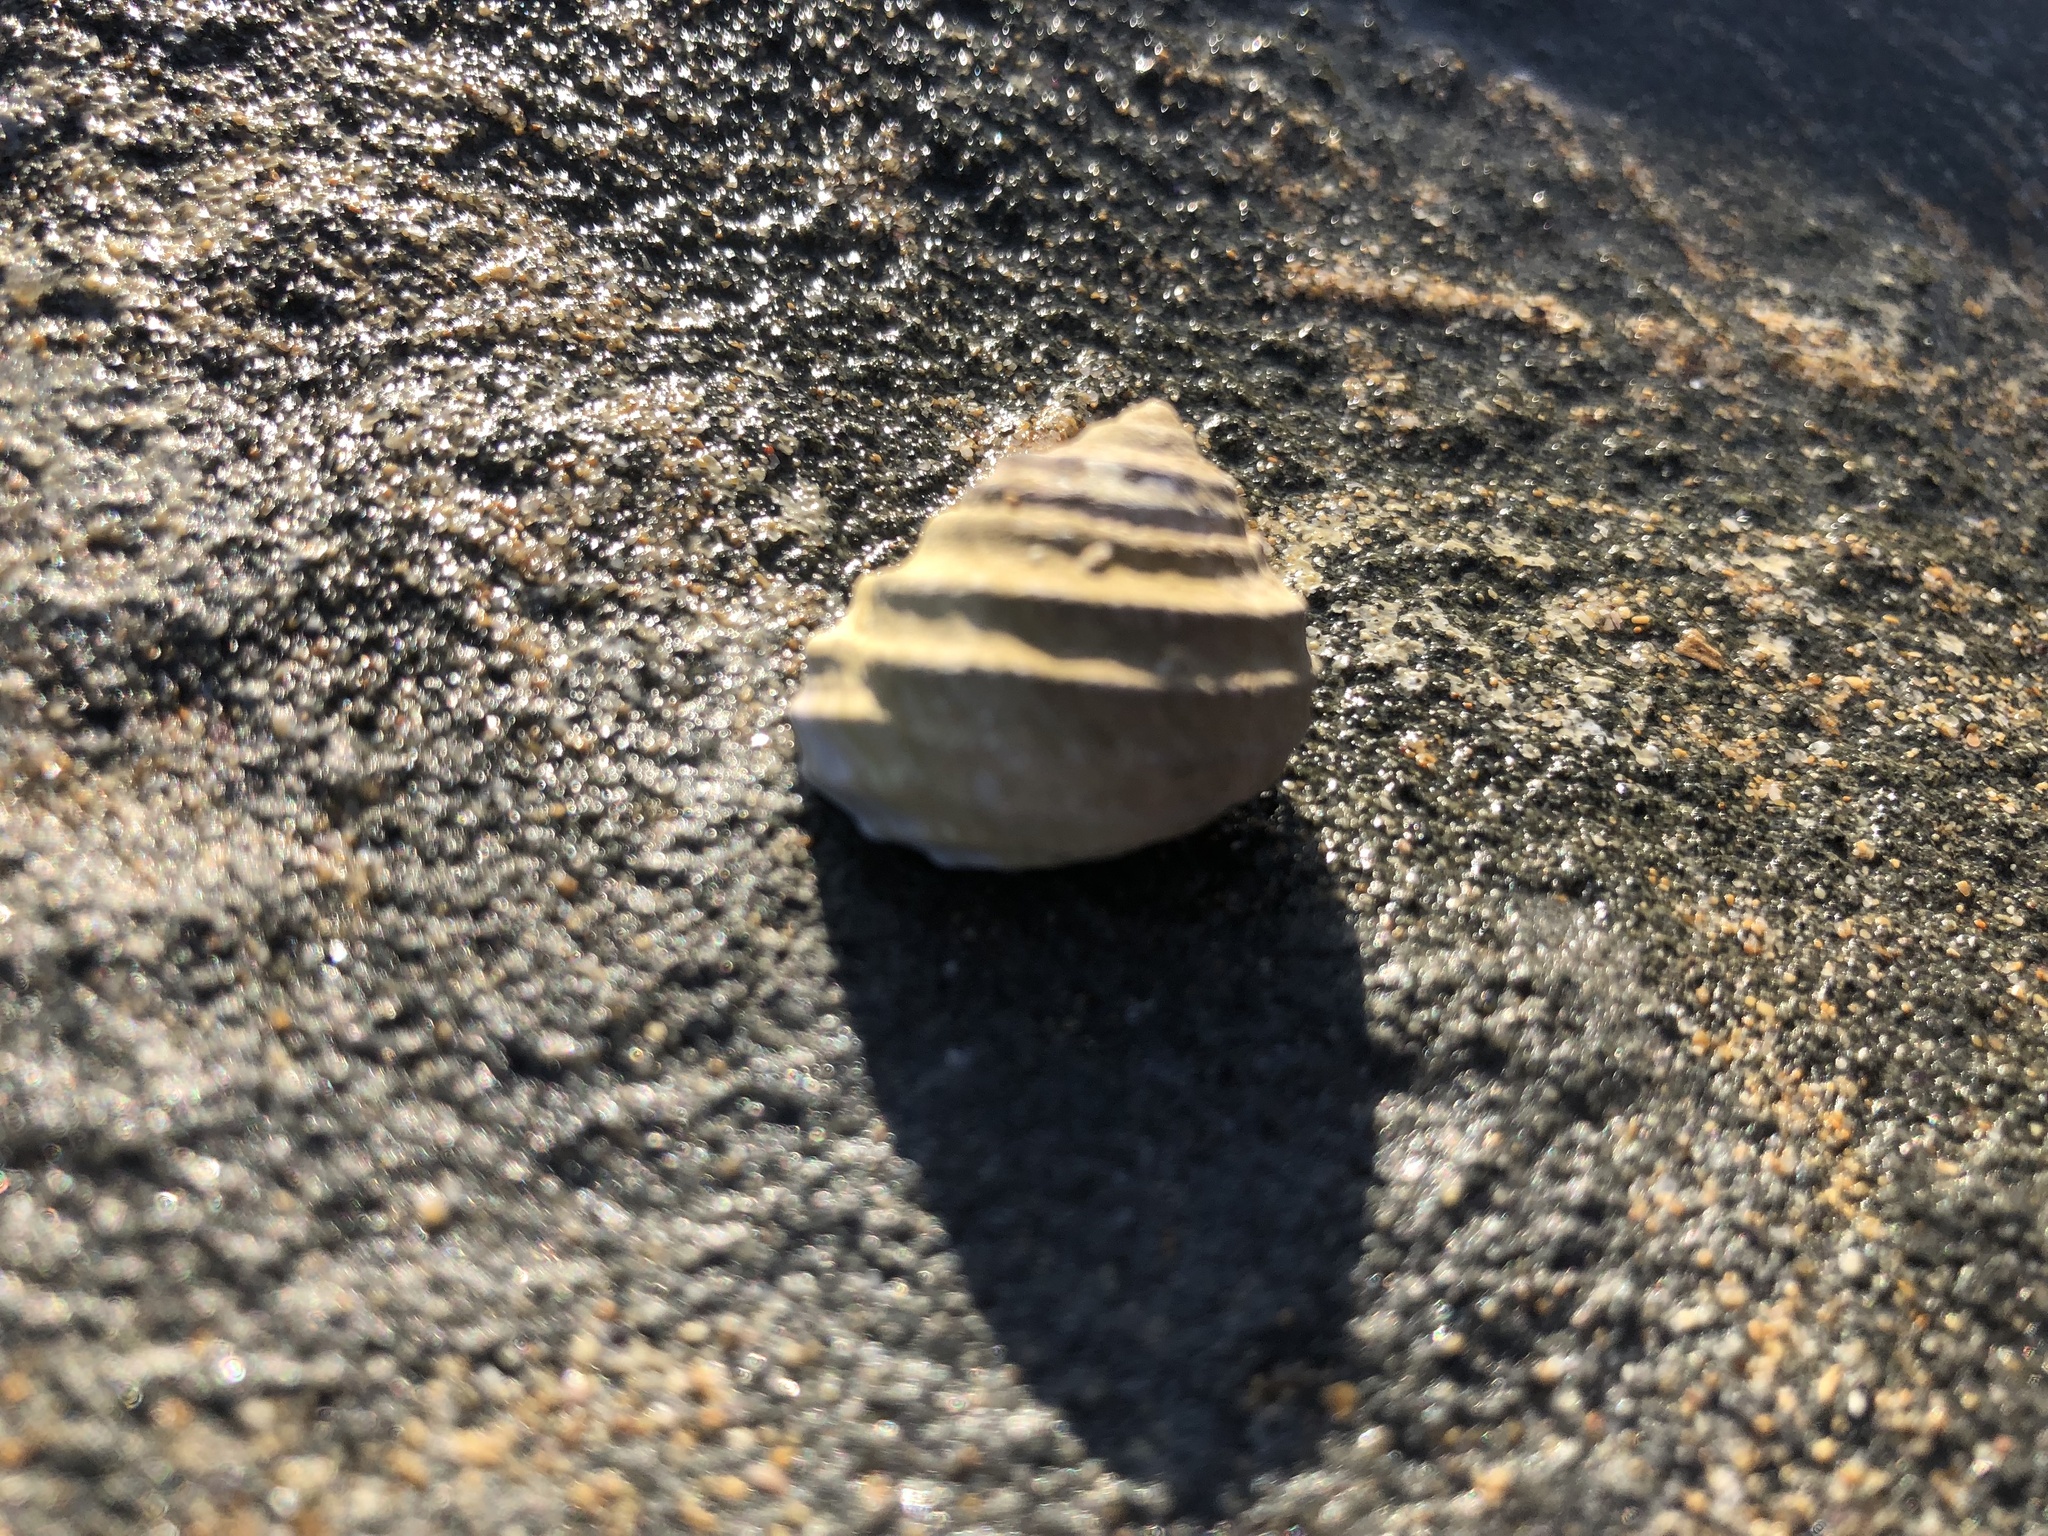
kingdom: Animalia
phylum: Mollusca
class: Gastropoda
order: Trochida
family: Trochidae
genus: Austrocochlea
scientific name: Austrocochlea constricta
